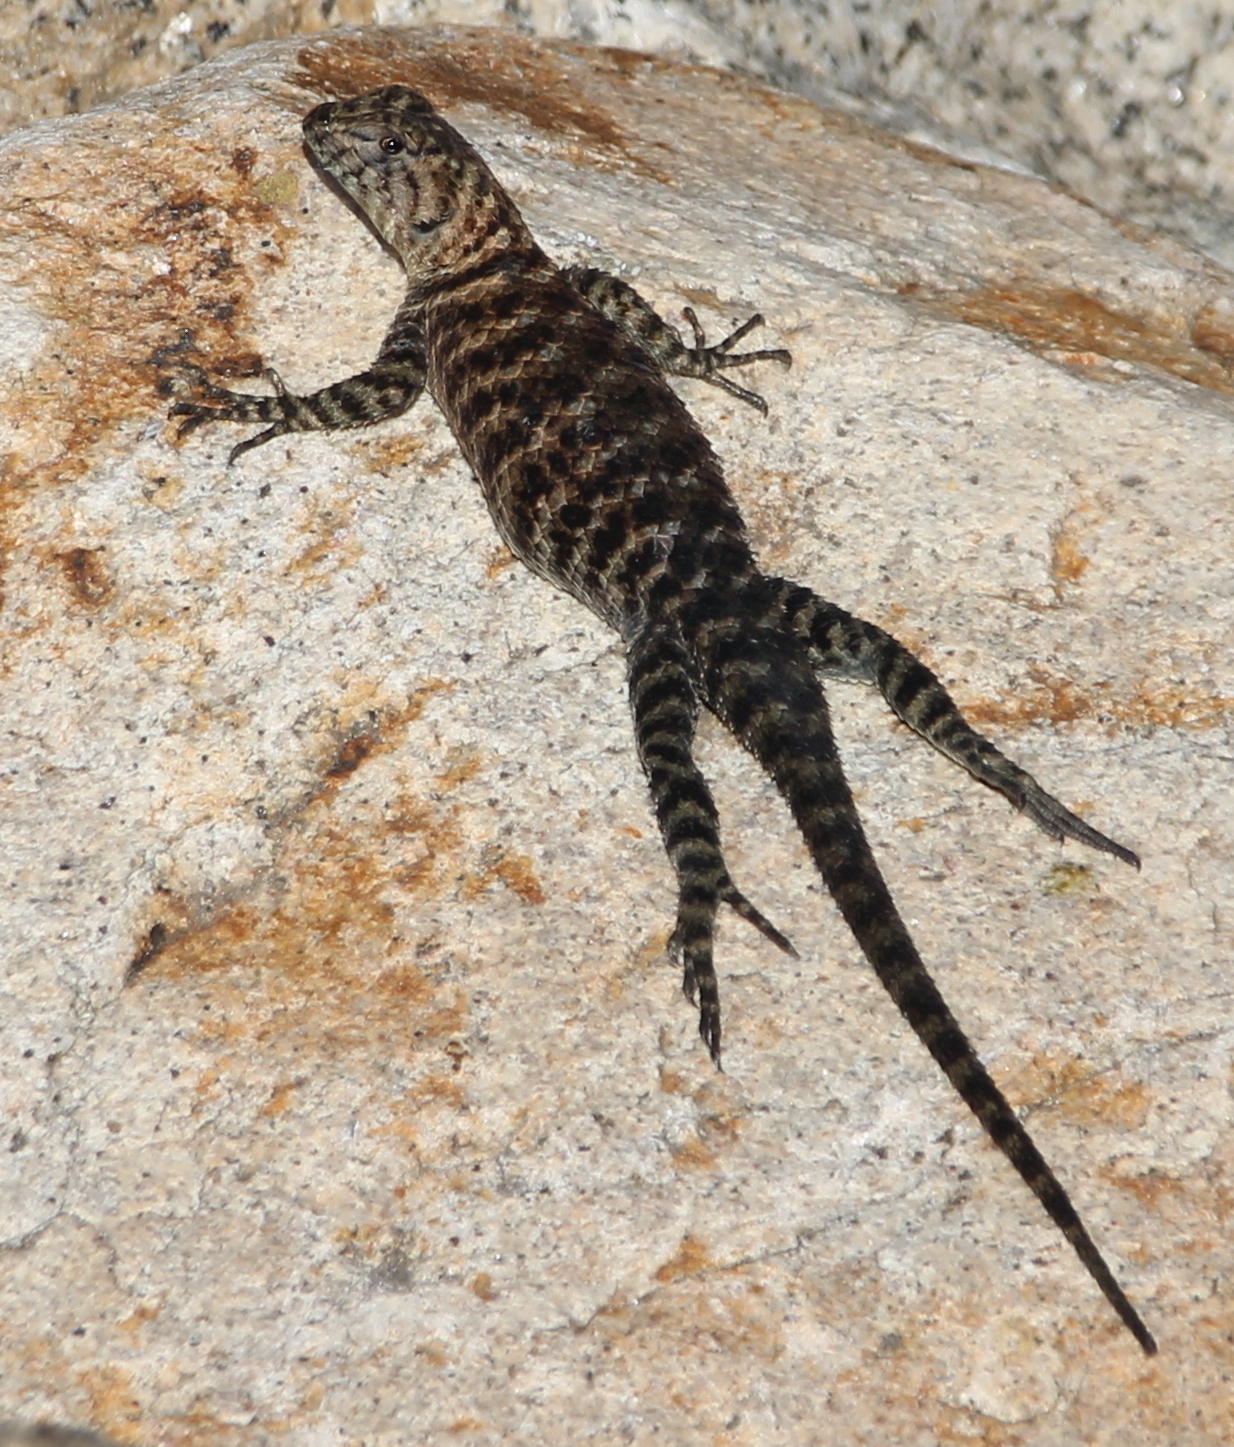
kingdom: Animalia
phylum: Chordata
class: Squamata
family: Phrynosomatidae
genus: Sceloporus
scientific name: Sceloporus orcutti
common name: Granite spiny lizard
